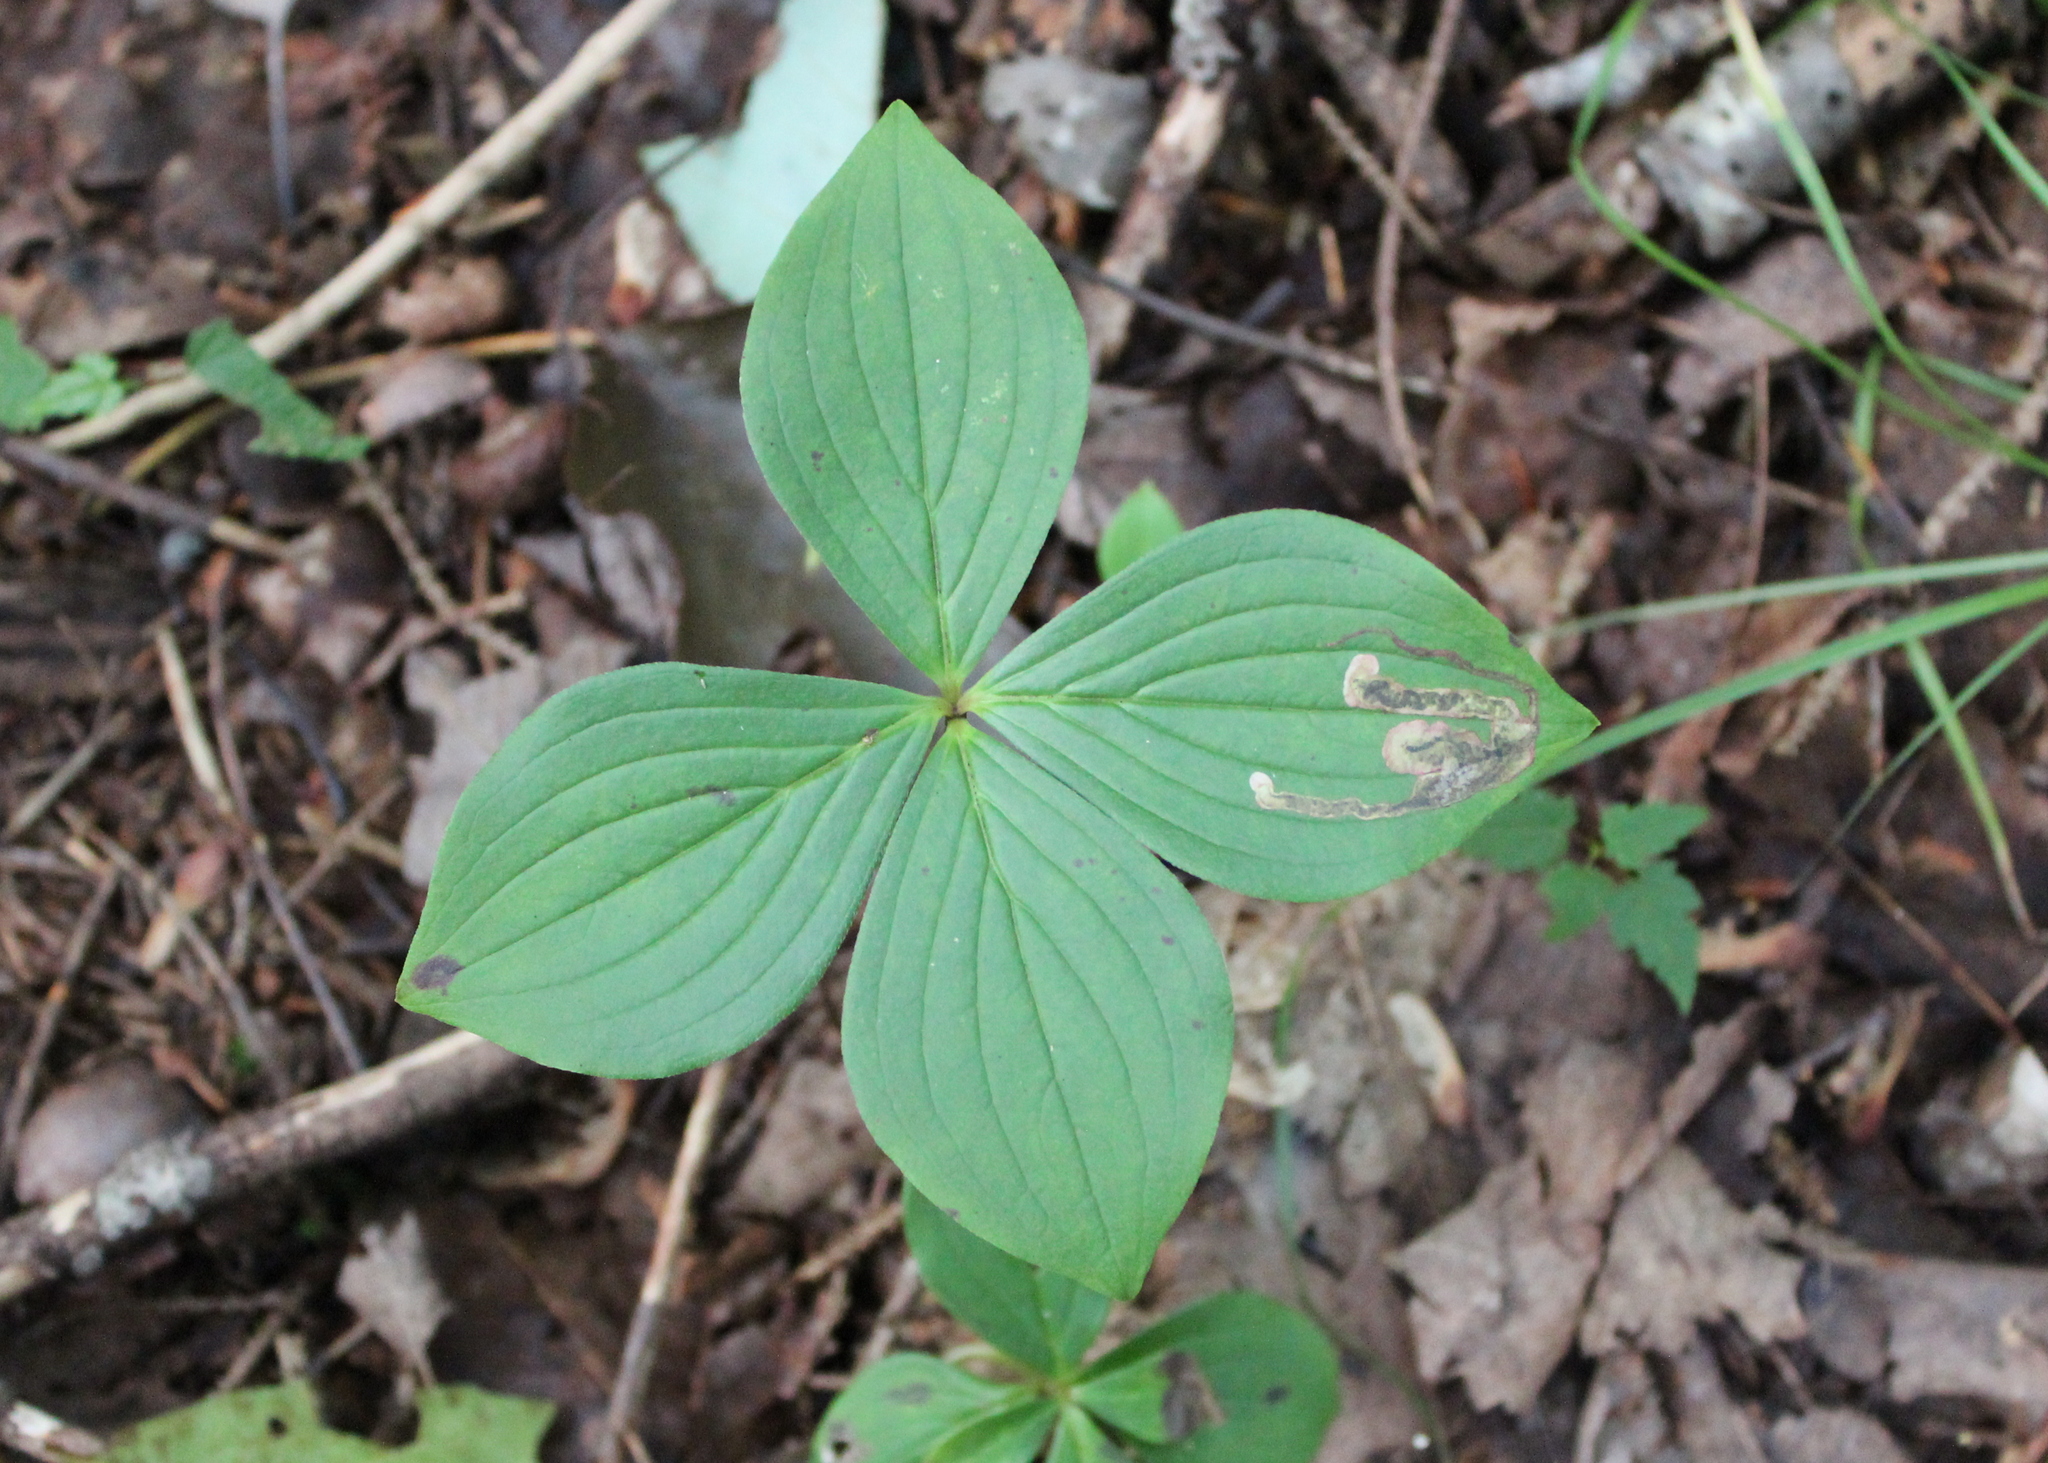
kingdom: Animalia
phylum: Arthropoda
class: Insecta
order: Diptera
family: Agromyzidae
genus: Phytomyza
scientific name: Phytomyza agromyzina
